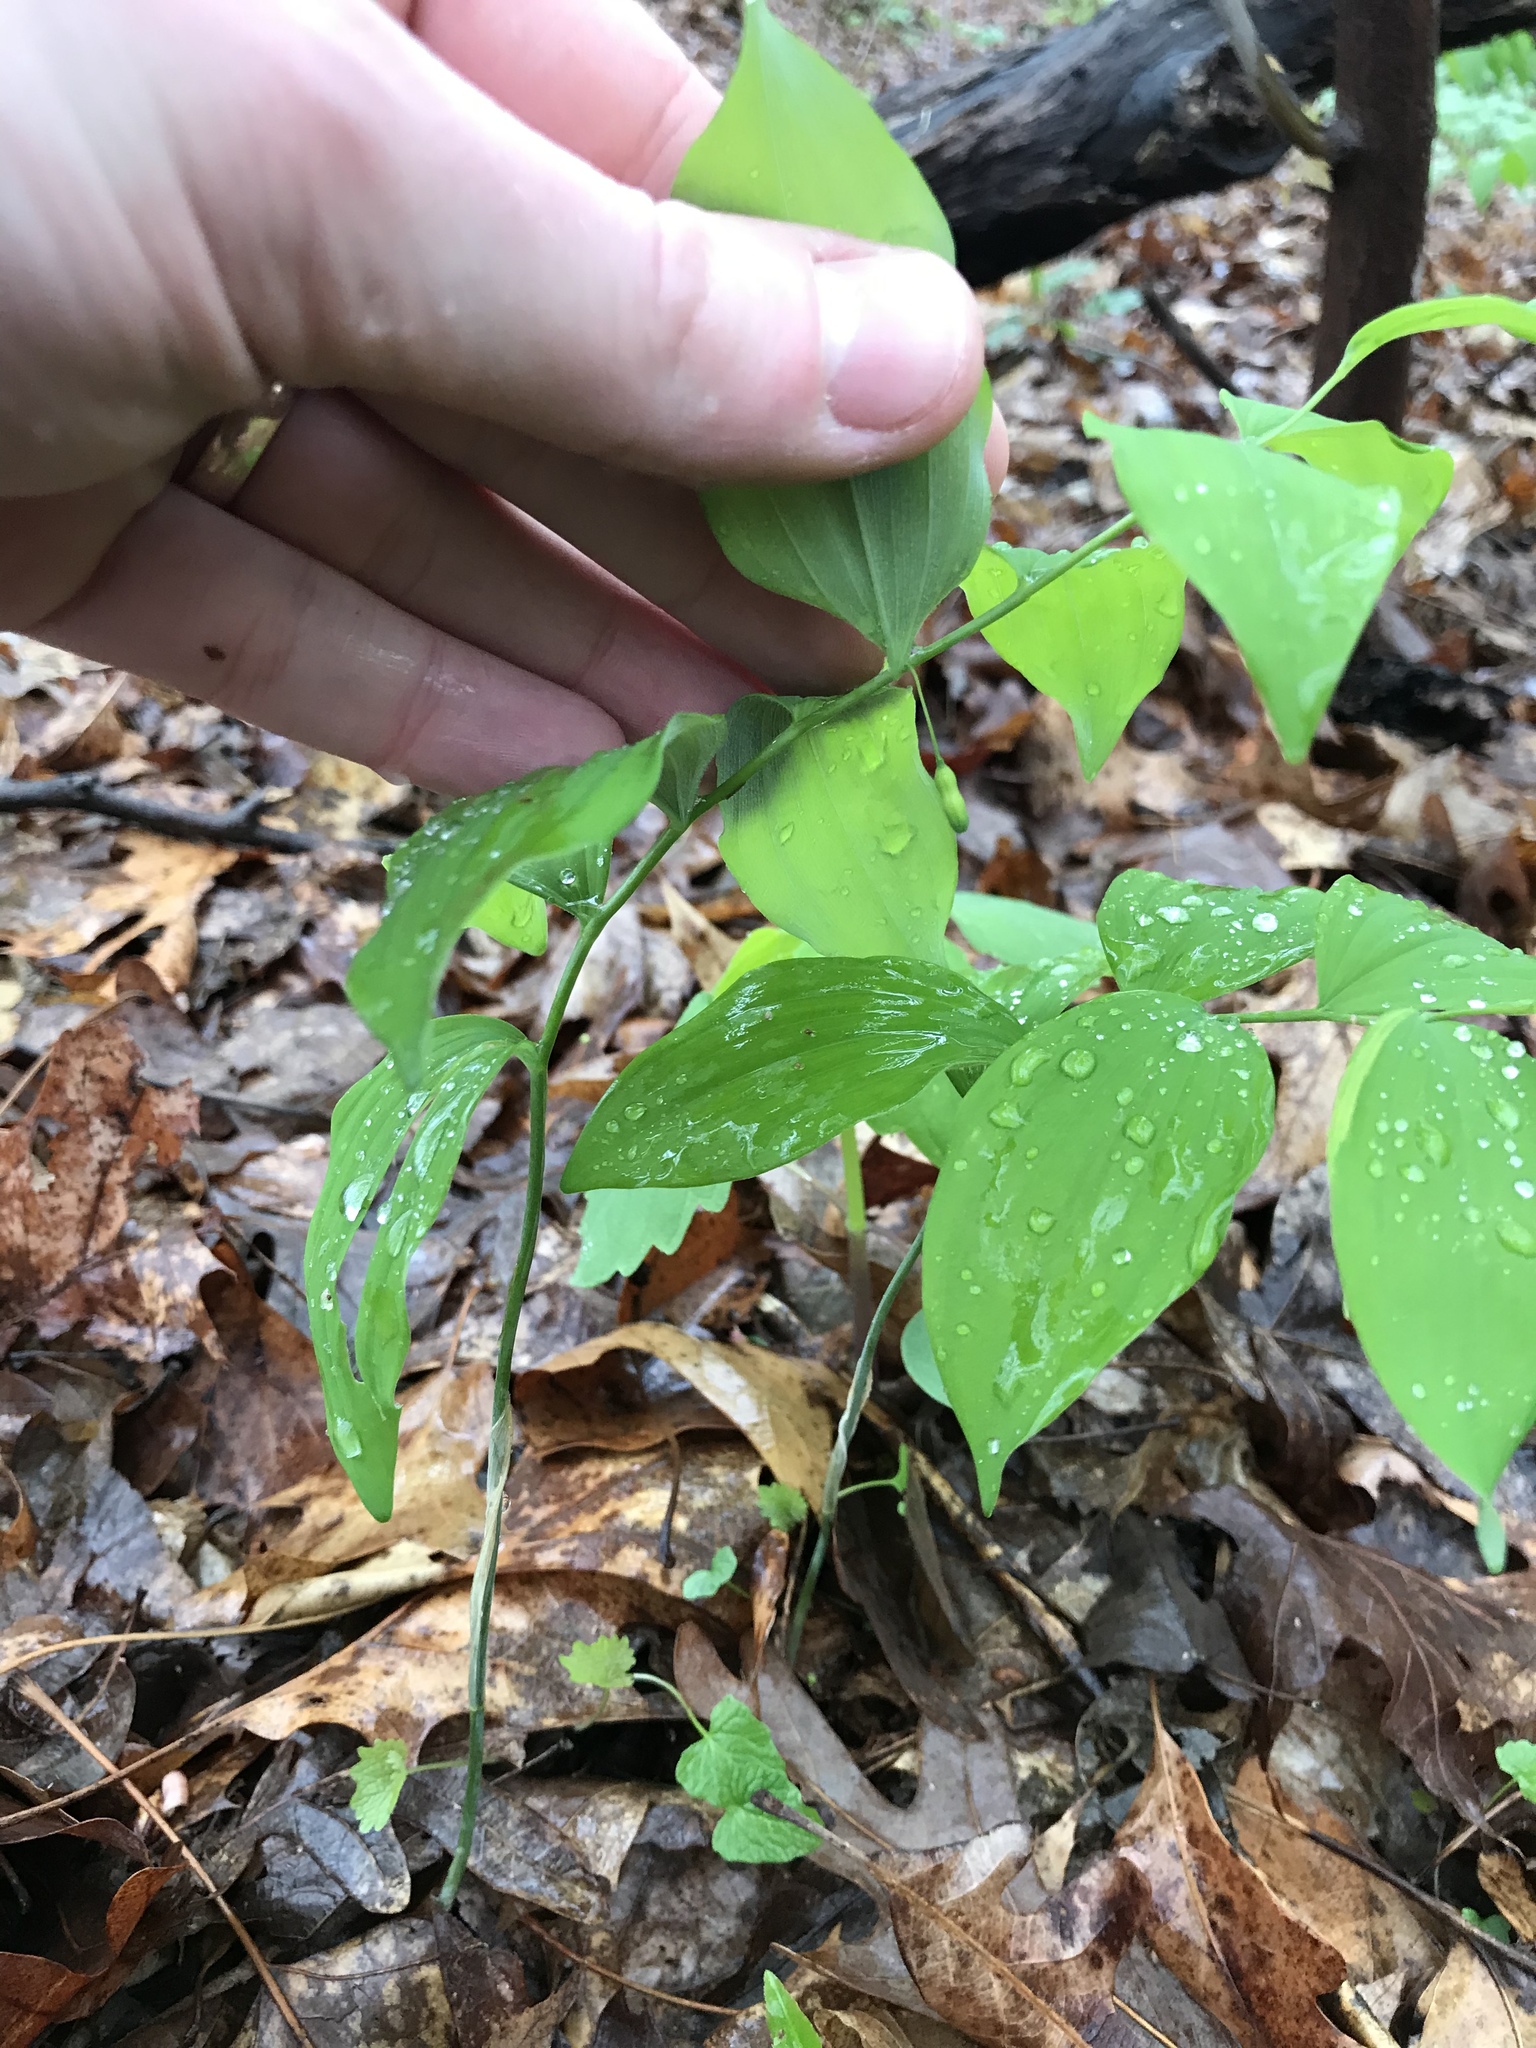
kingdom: Plantae
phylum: Tracheophyta
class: Liliopsida
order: Asparagales
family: Asparagaceae
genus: Polygonatum
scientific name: Polygonatum pubescens
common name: Downy solomon's seal
